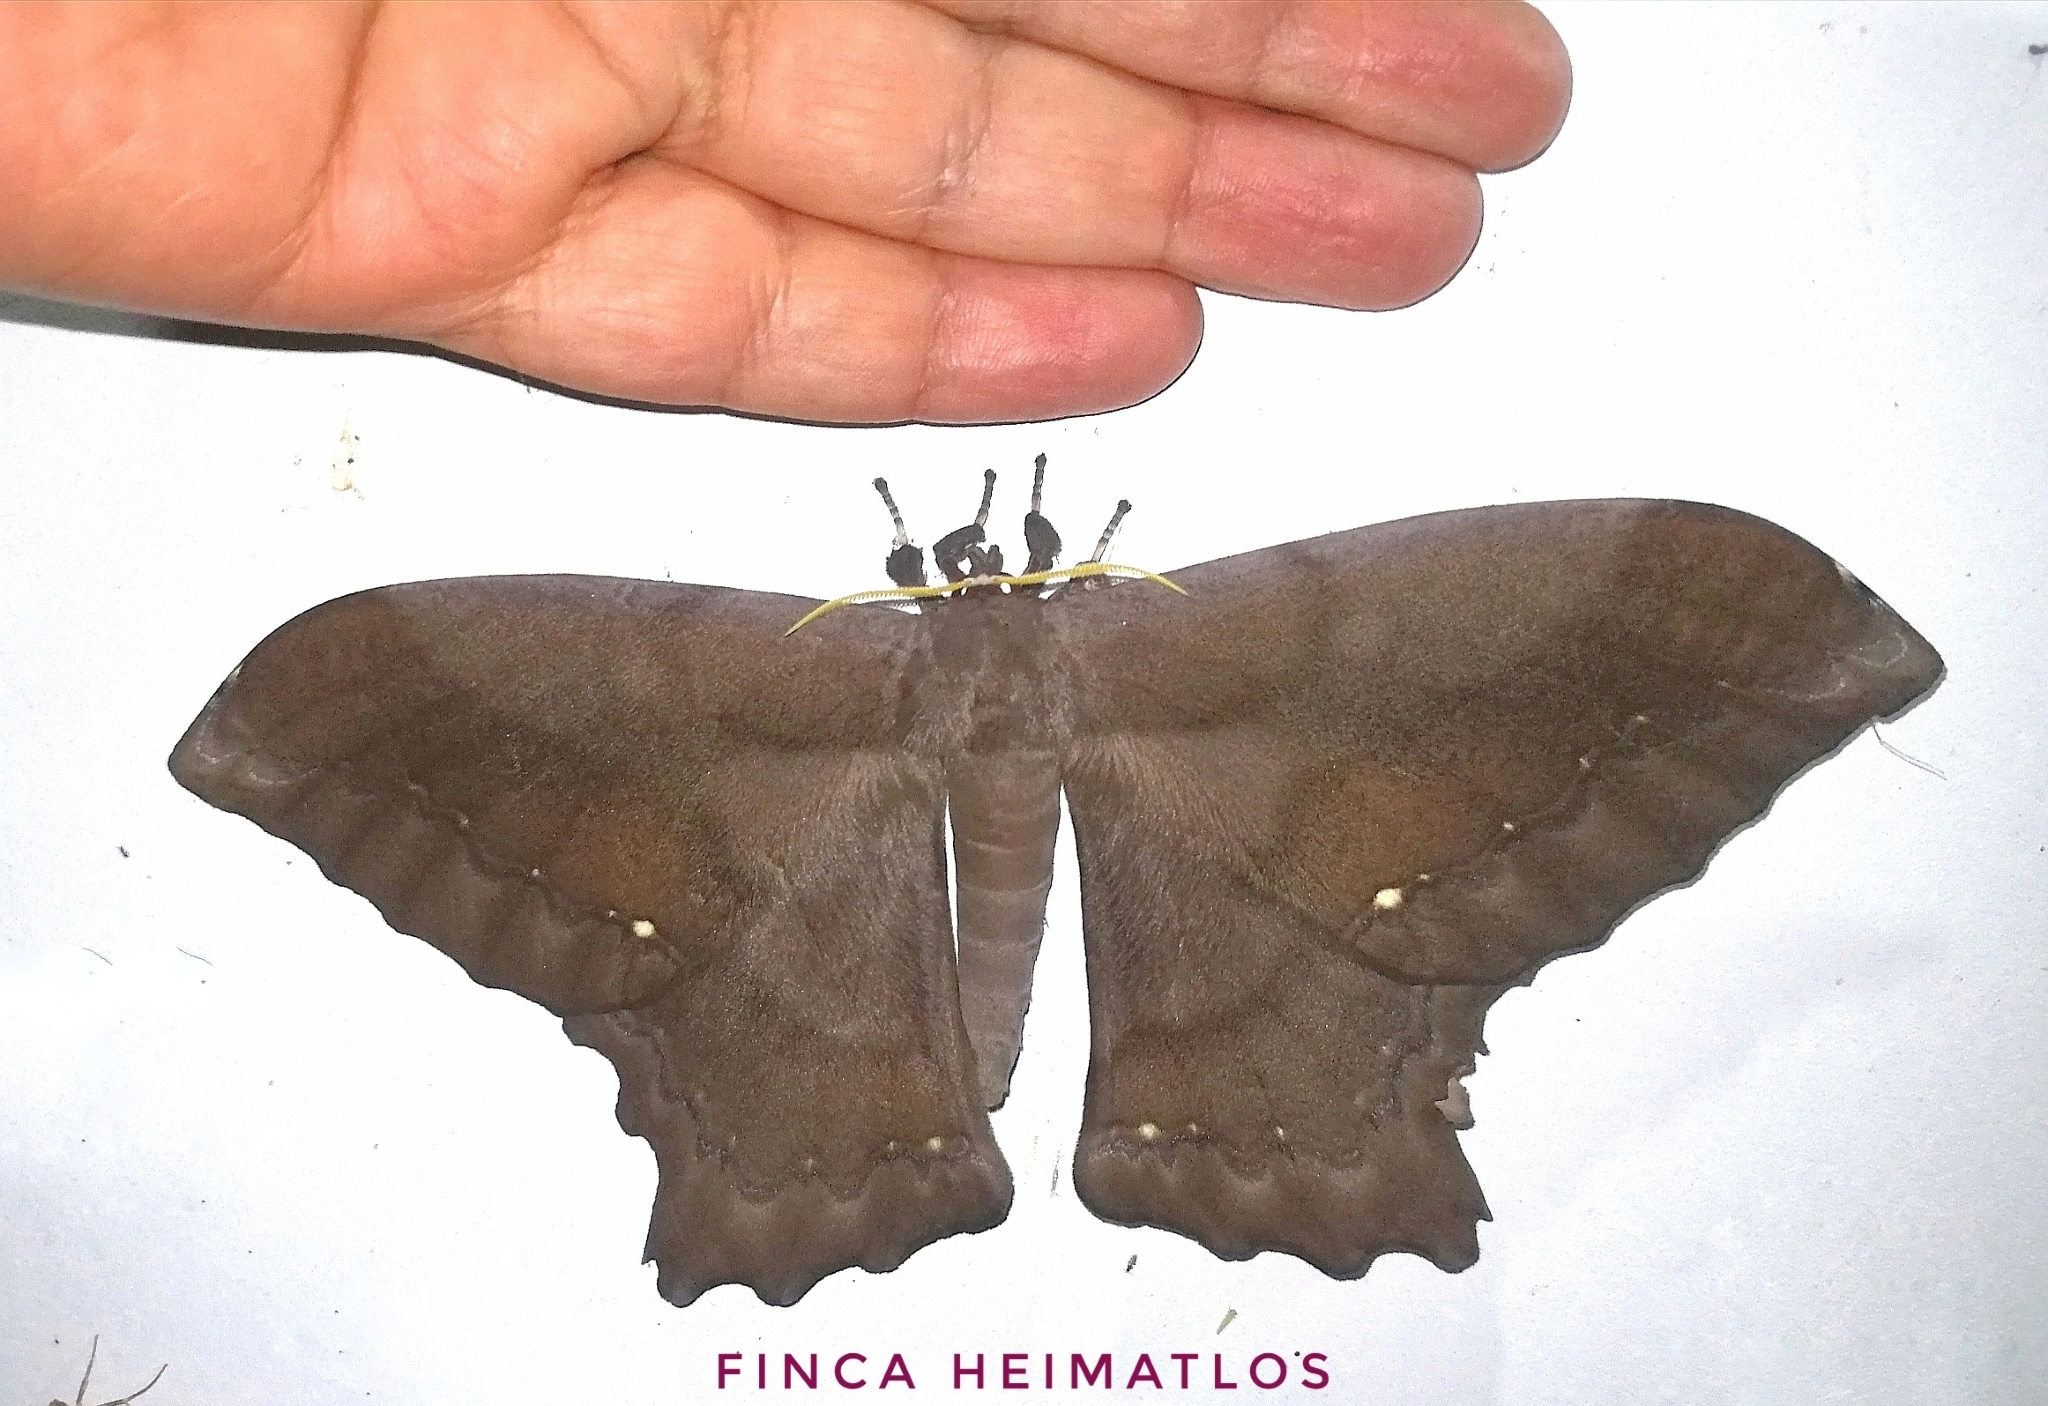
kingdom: Animalia
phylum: Arthropoda
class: Insecta
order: Lepidoptera
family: Saturniidae
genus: Arsenura
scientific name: Arsenura batesii
